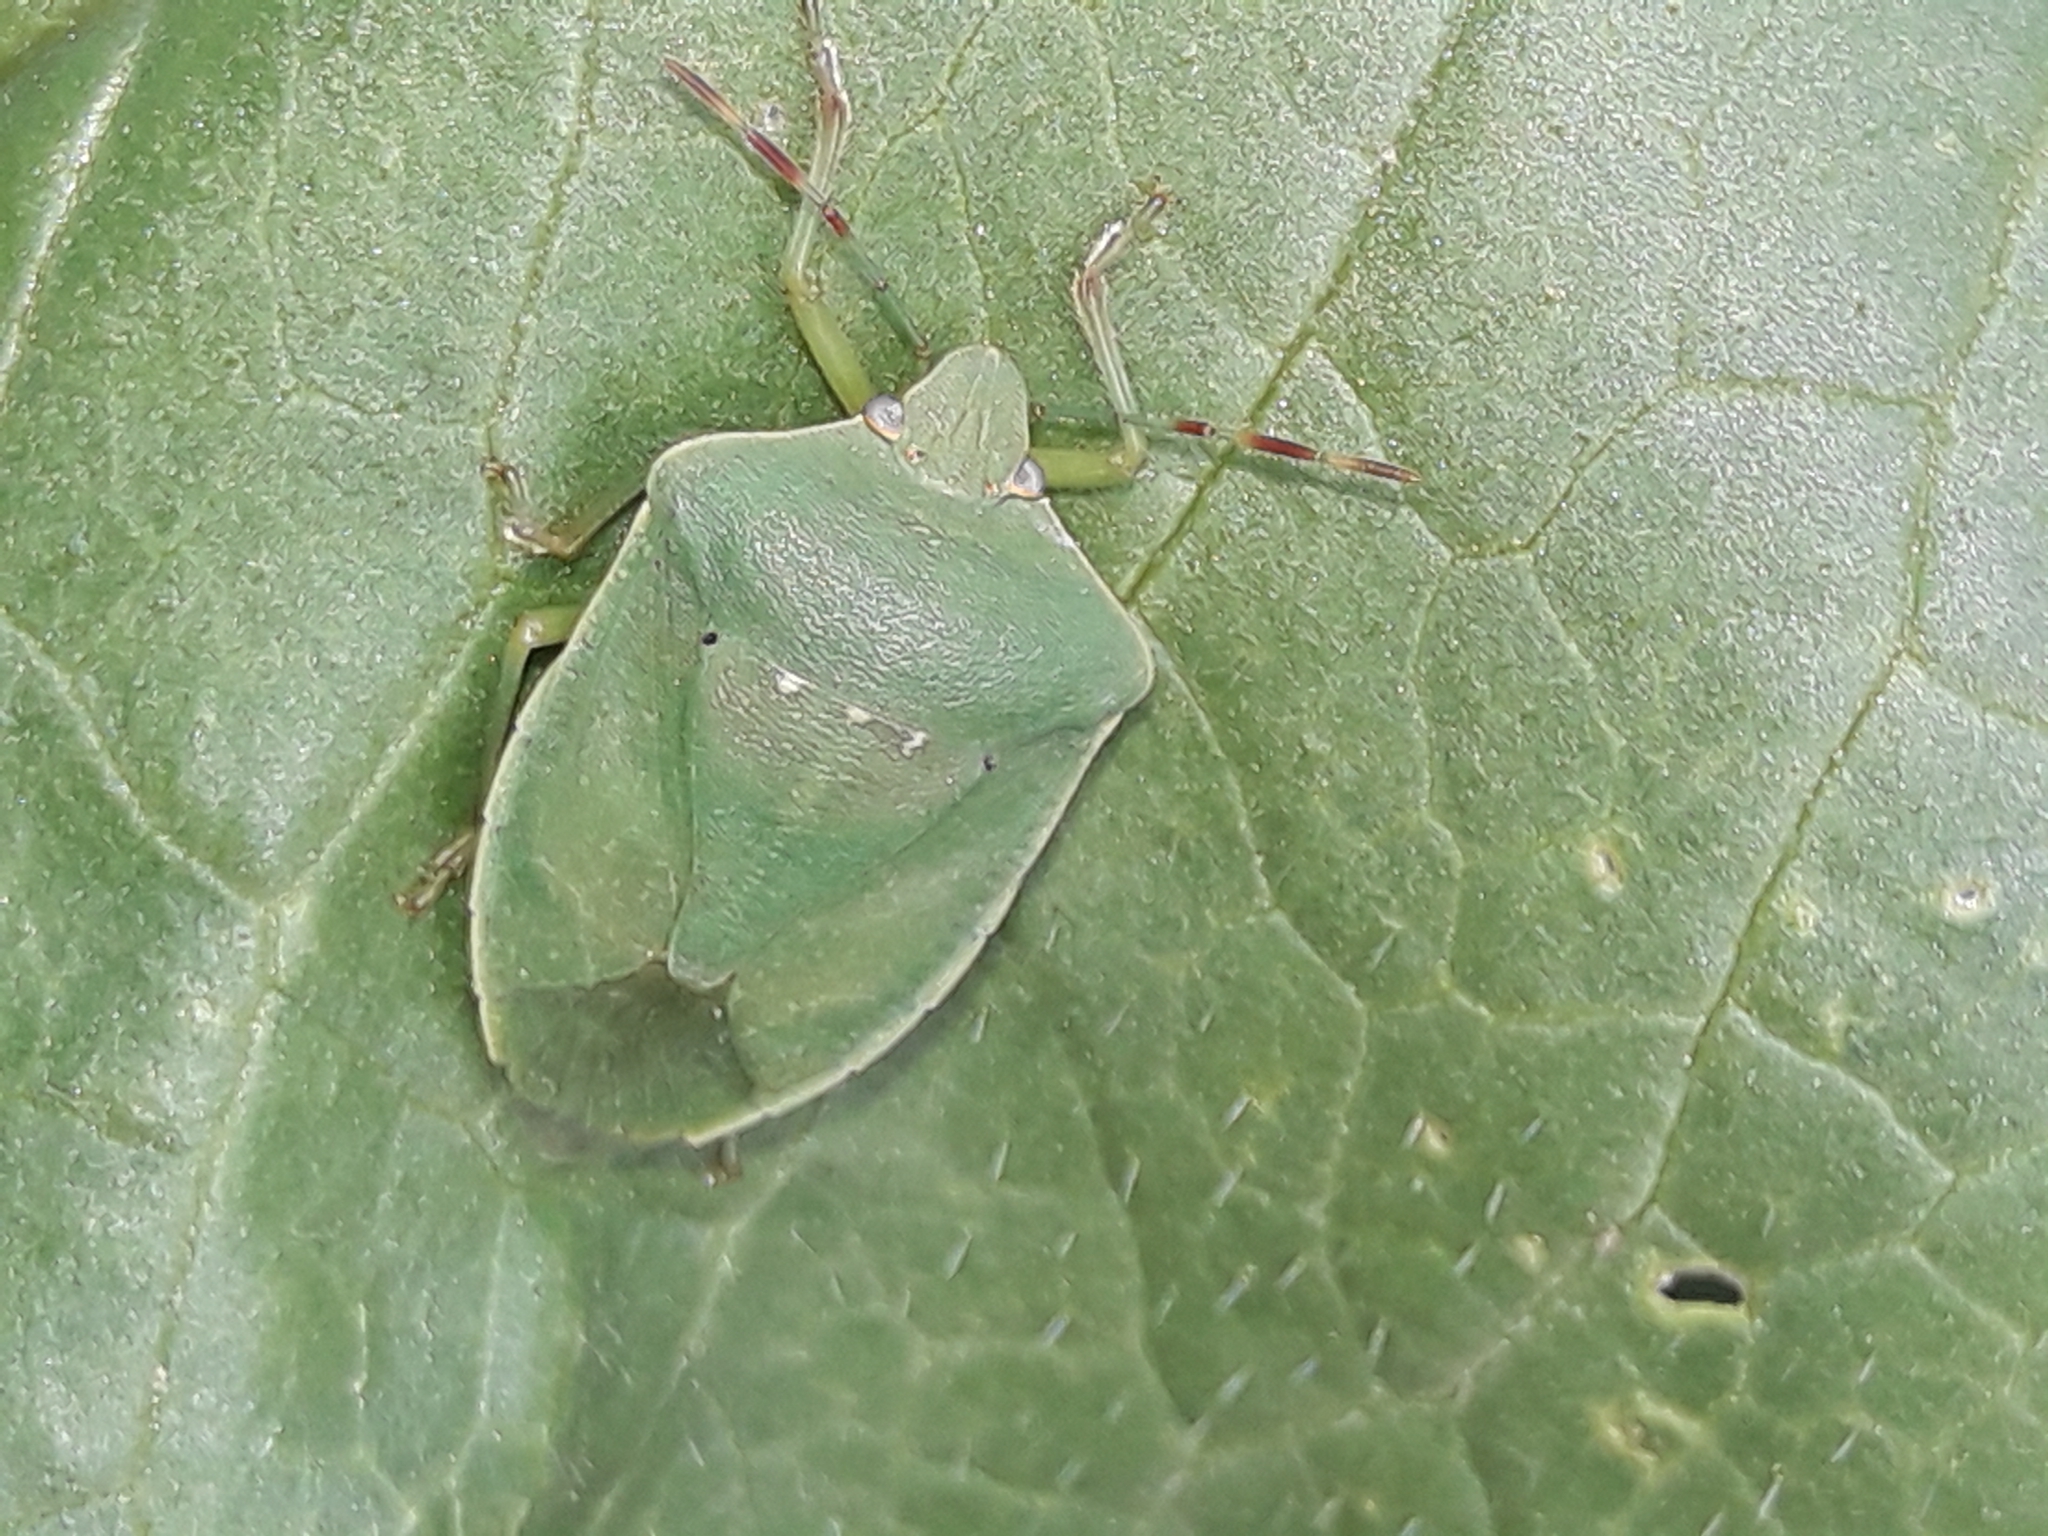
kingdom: Animalia
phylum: Arthropoda
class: Insecta
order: Hemiptera
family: Pentatomidae
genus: Nezara
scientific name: Nezara viridula
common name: Southern green stink bug
